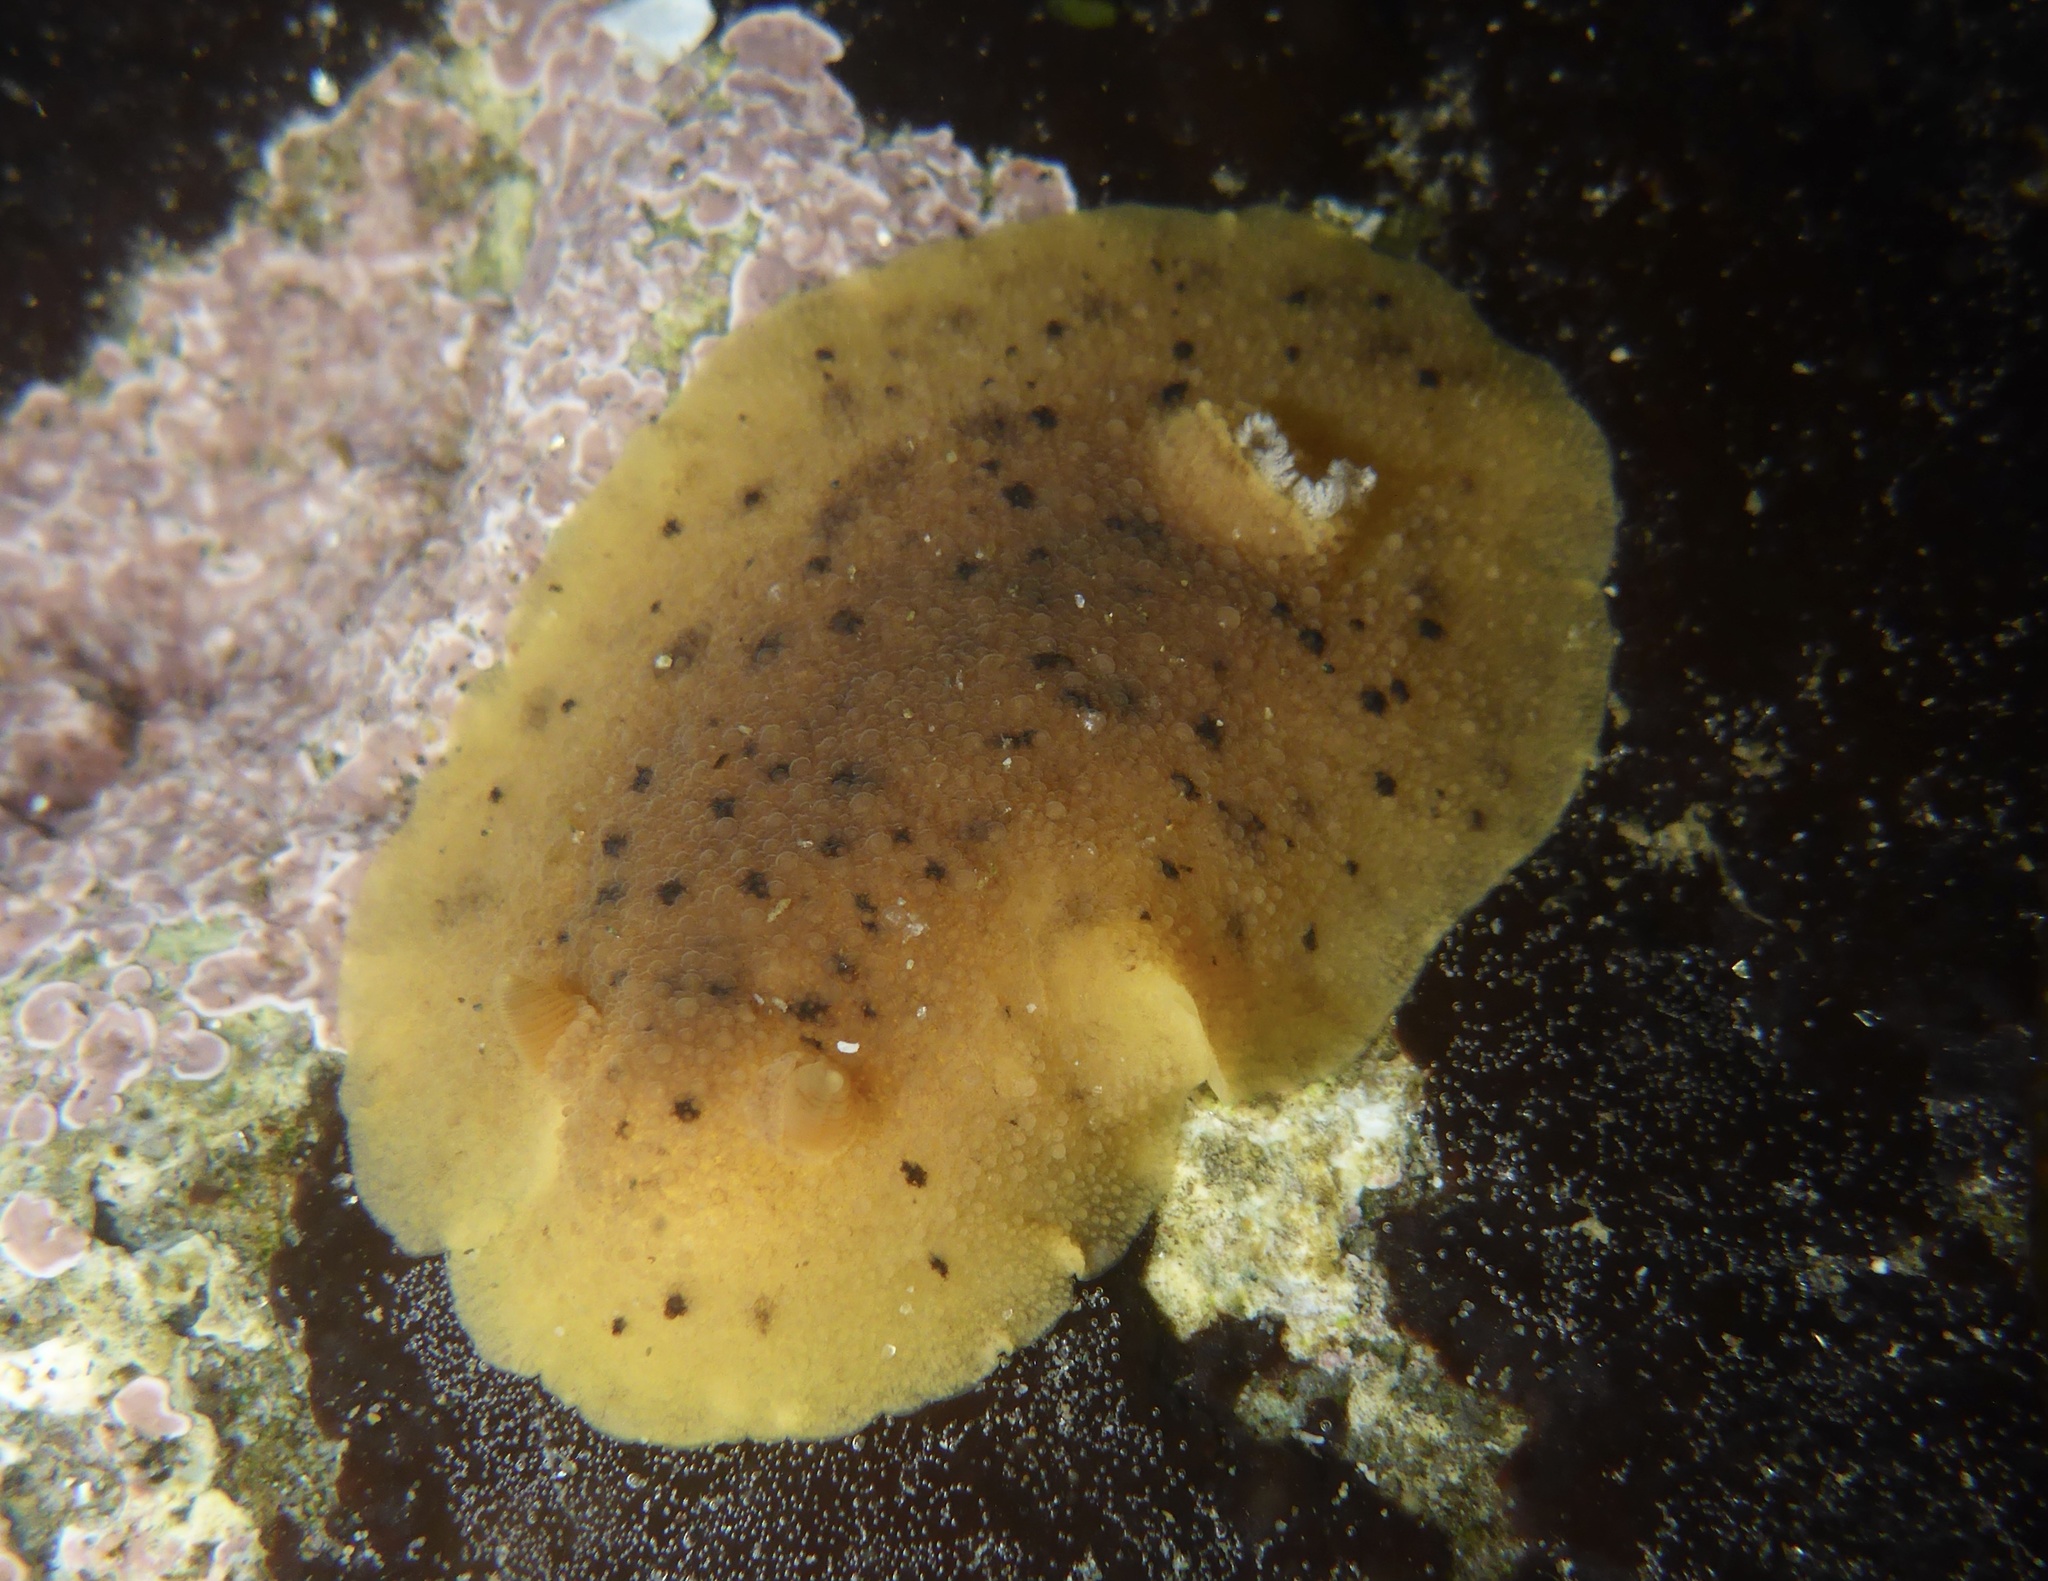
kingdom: Animalia
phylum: Mollusca
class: Gastropoda
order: Nudibranchia
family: Discodorididae
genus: Geitodoris
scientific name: Geitodoris heathi
